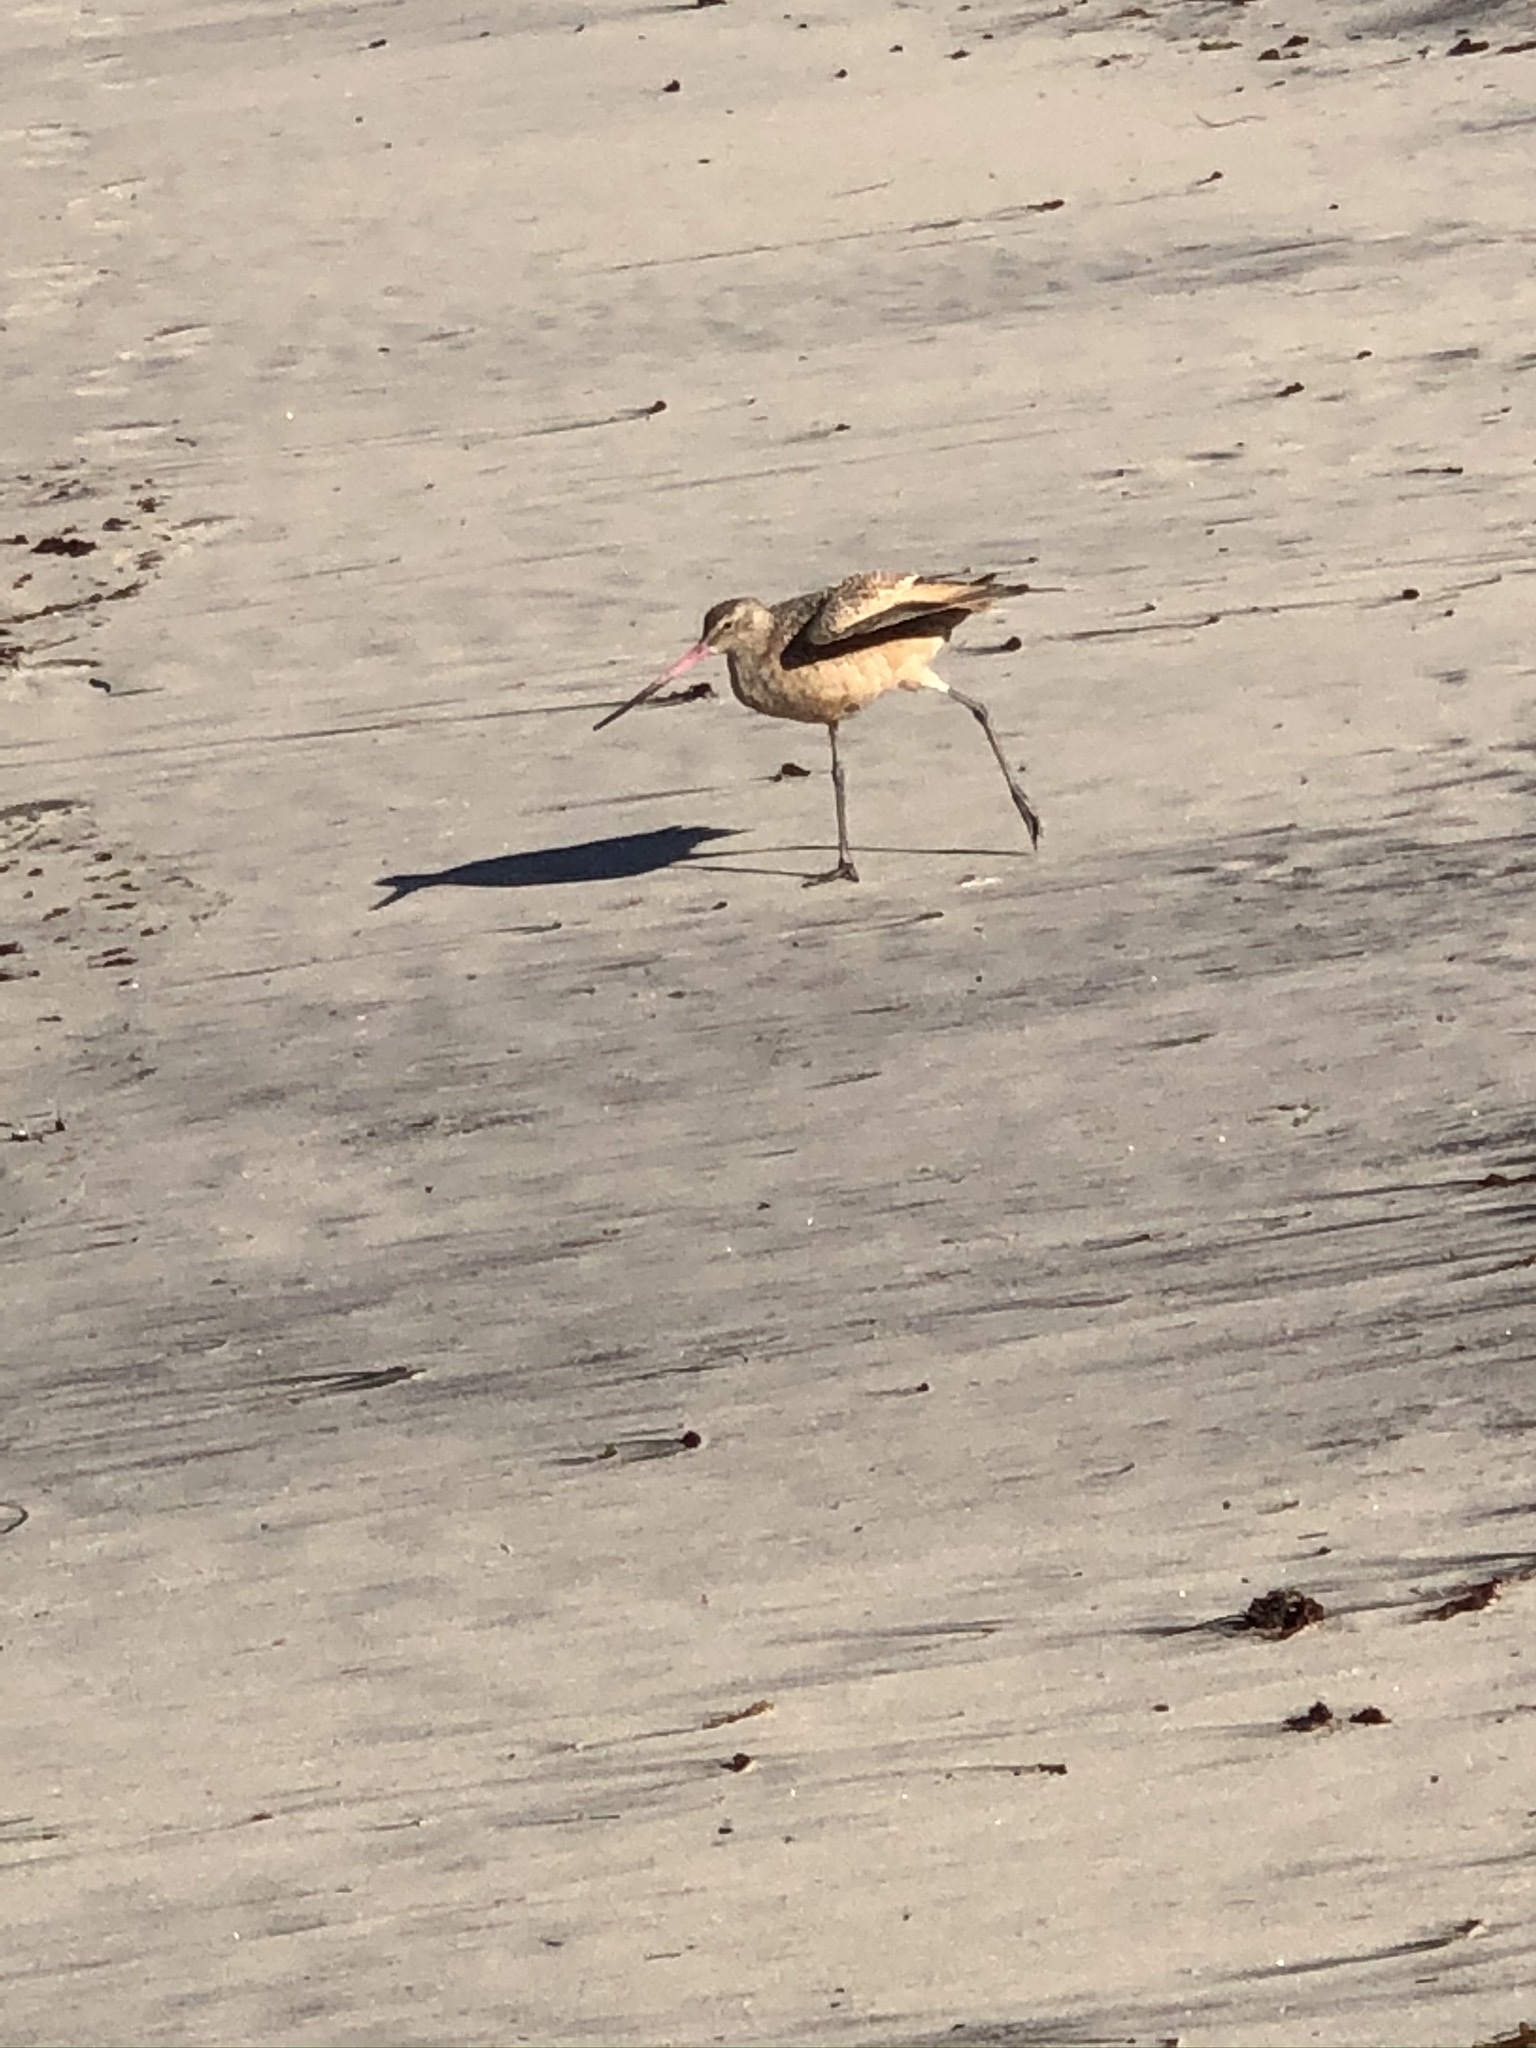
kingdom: Animalia
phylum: Chordata
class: Aves
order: Charadriiformes
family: Scolopacidae
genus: Limosa
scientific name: Limosa fedoa
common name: Marbled godwit
